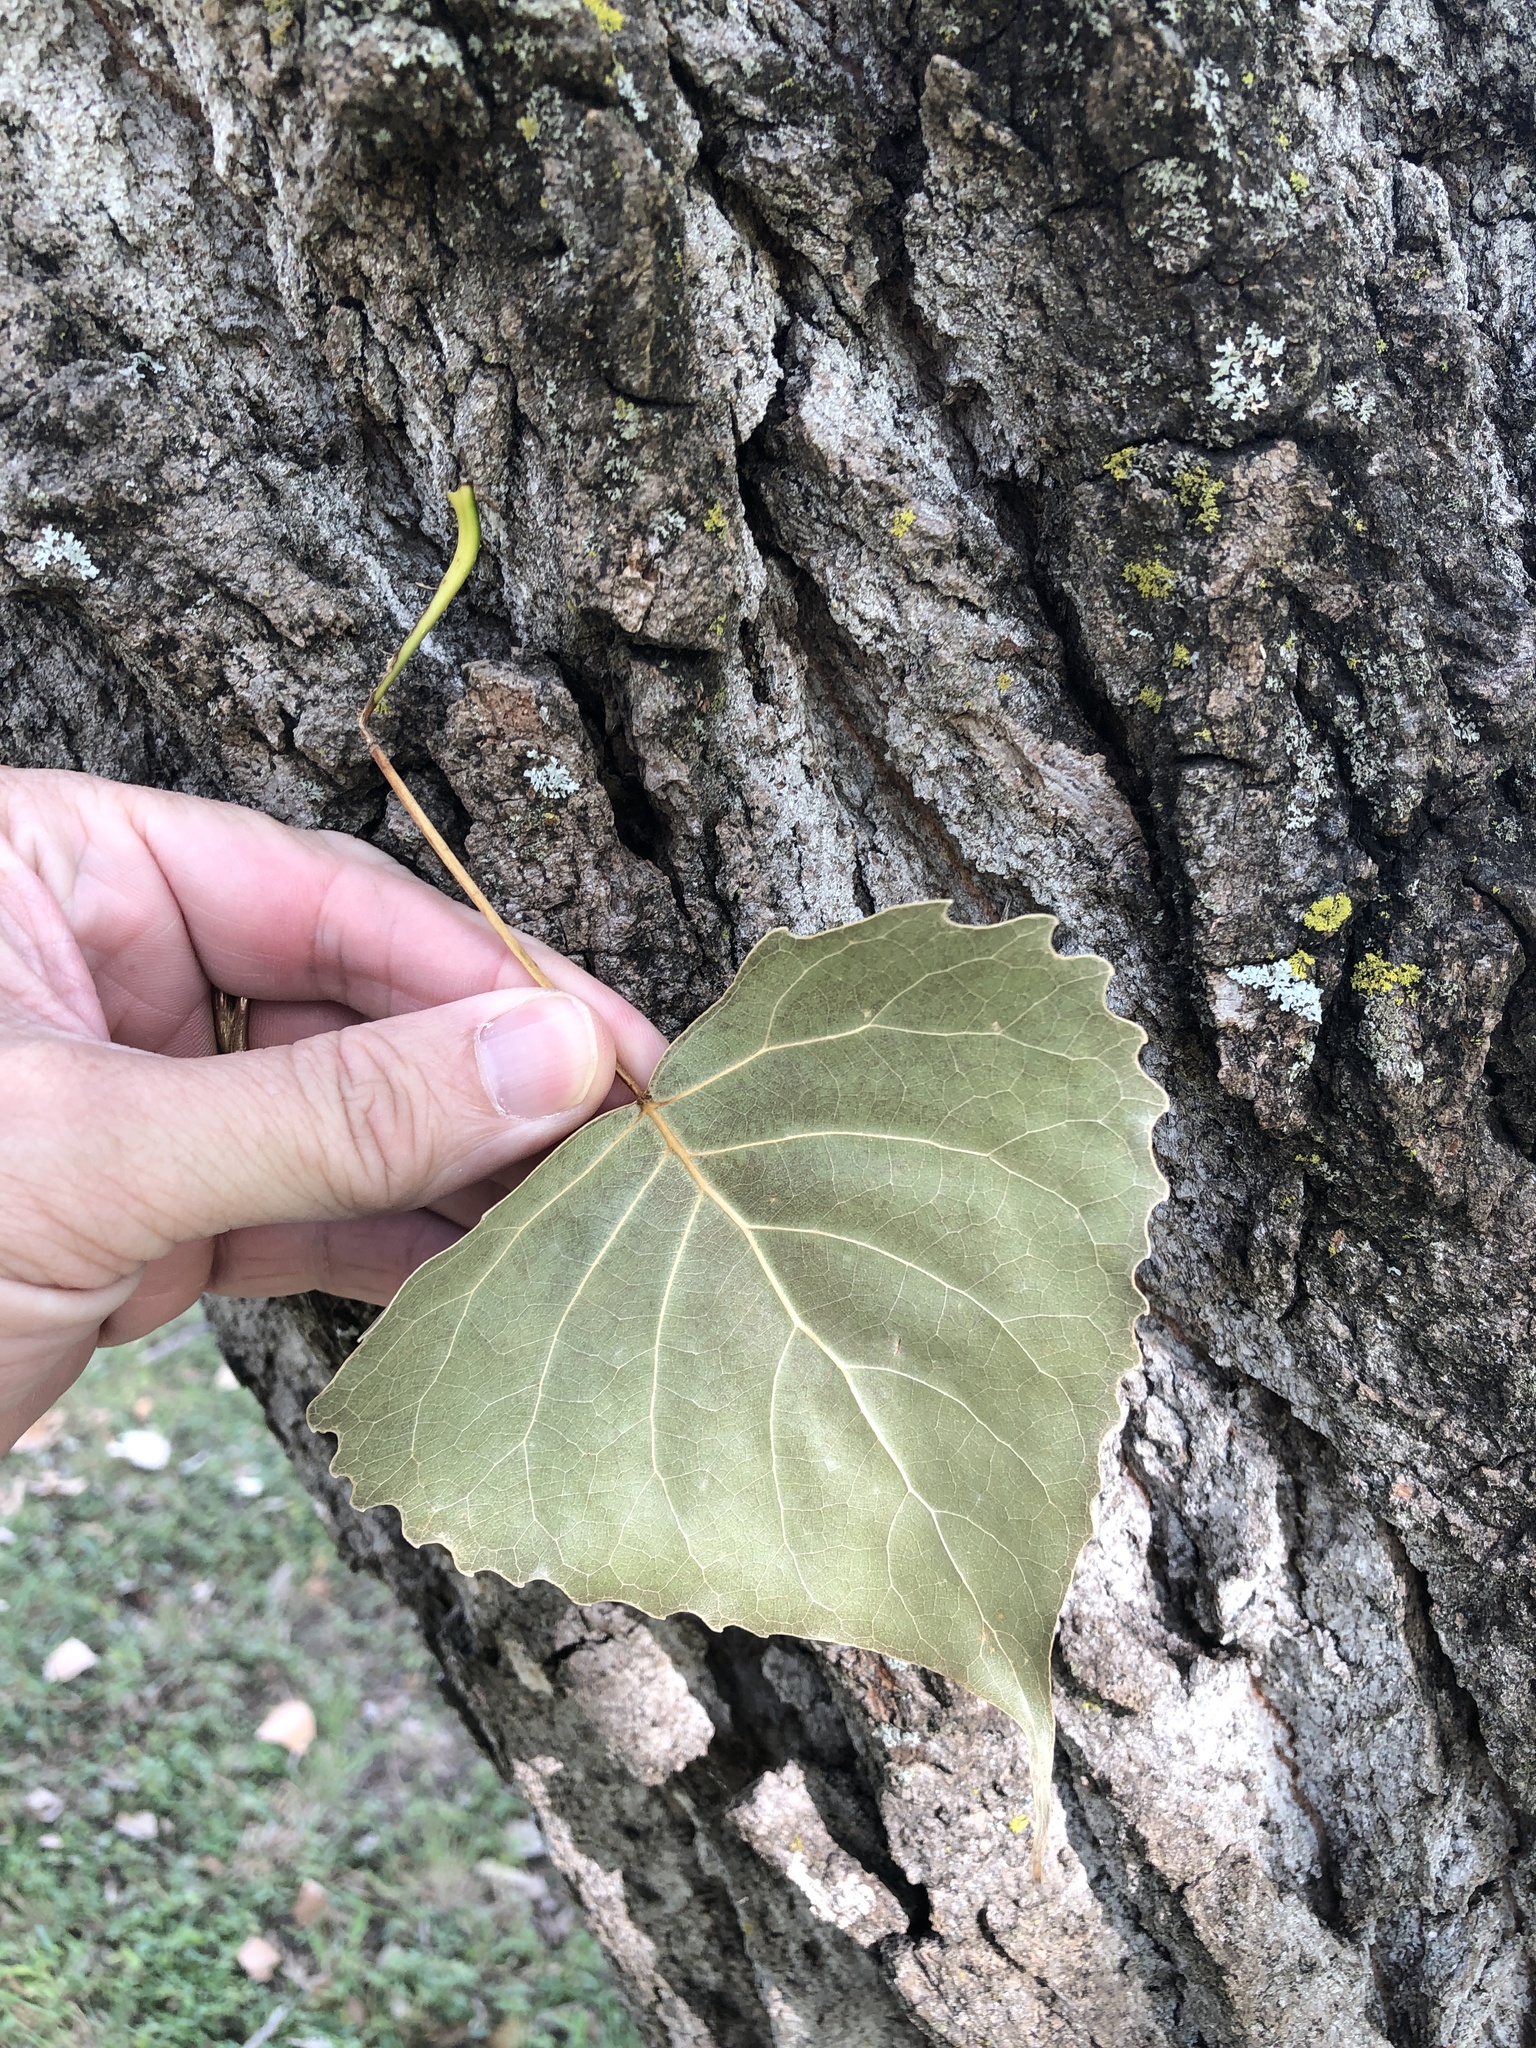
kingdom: Plantae
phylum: Tracheophyta
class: Magnoliopsida
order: Malpighiales
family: Salicaceae
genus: Populus
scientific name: Populus deltoides
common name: Eastern cottonwood
